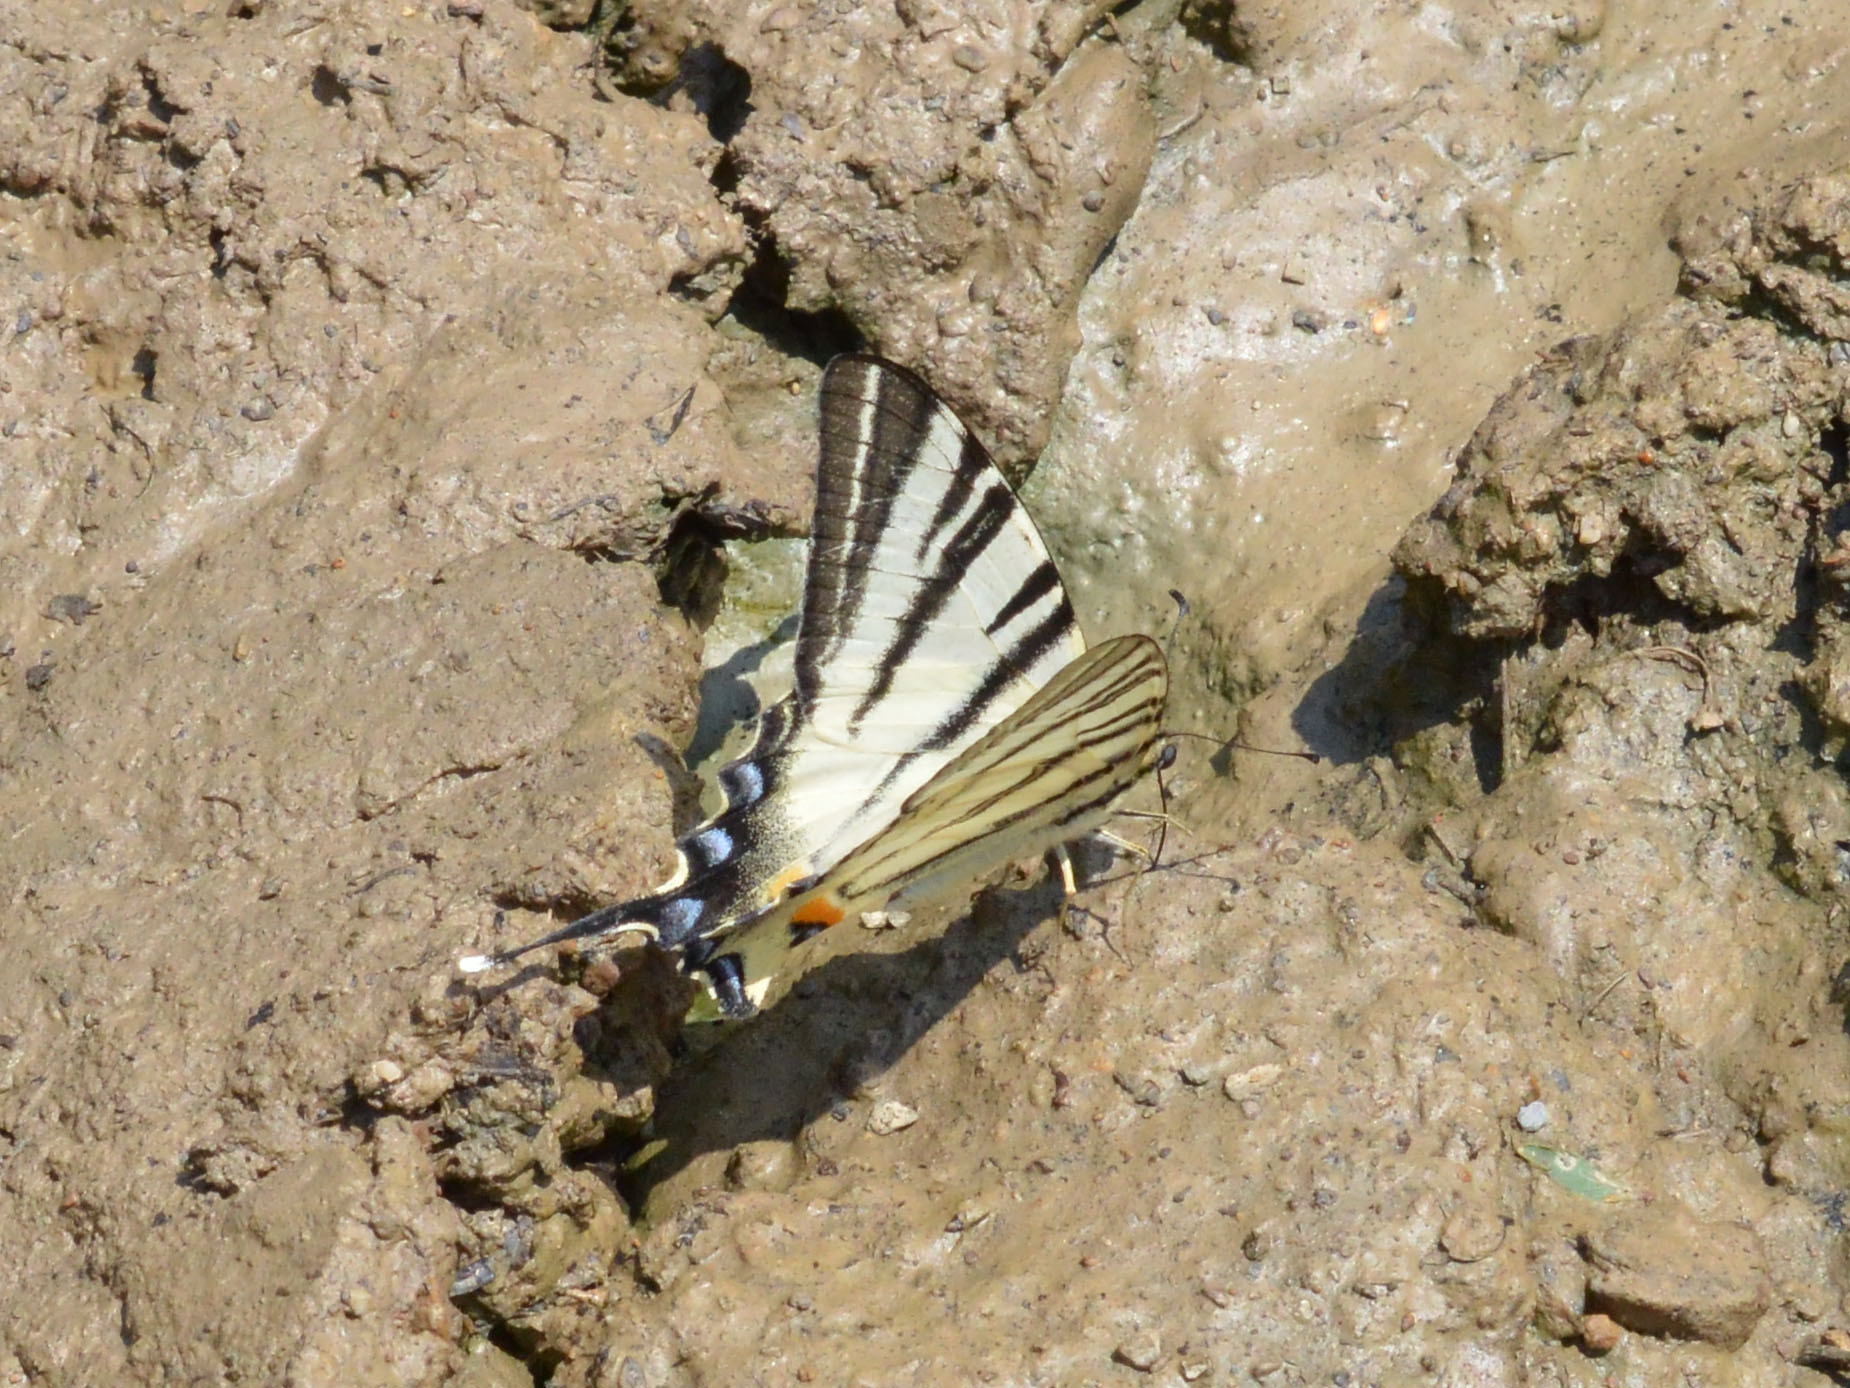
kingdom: Animalia
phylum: Arthropoda
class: Insecta
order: Lepidoptera
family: Papilionidae
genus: Iphiclides
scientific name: Iphiclides podalirius
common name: Scarce swallowtail
